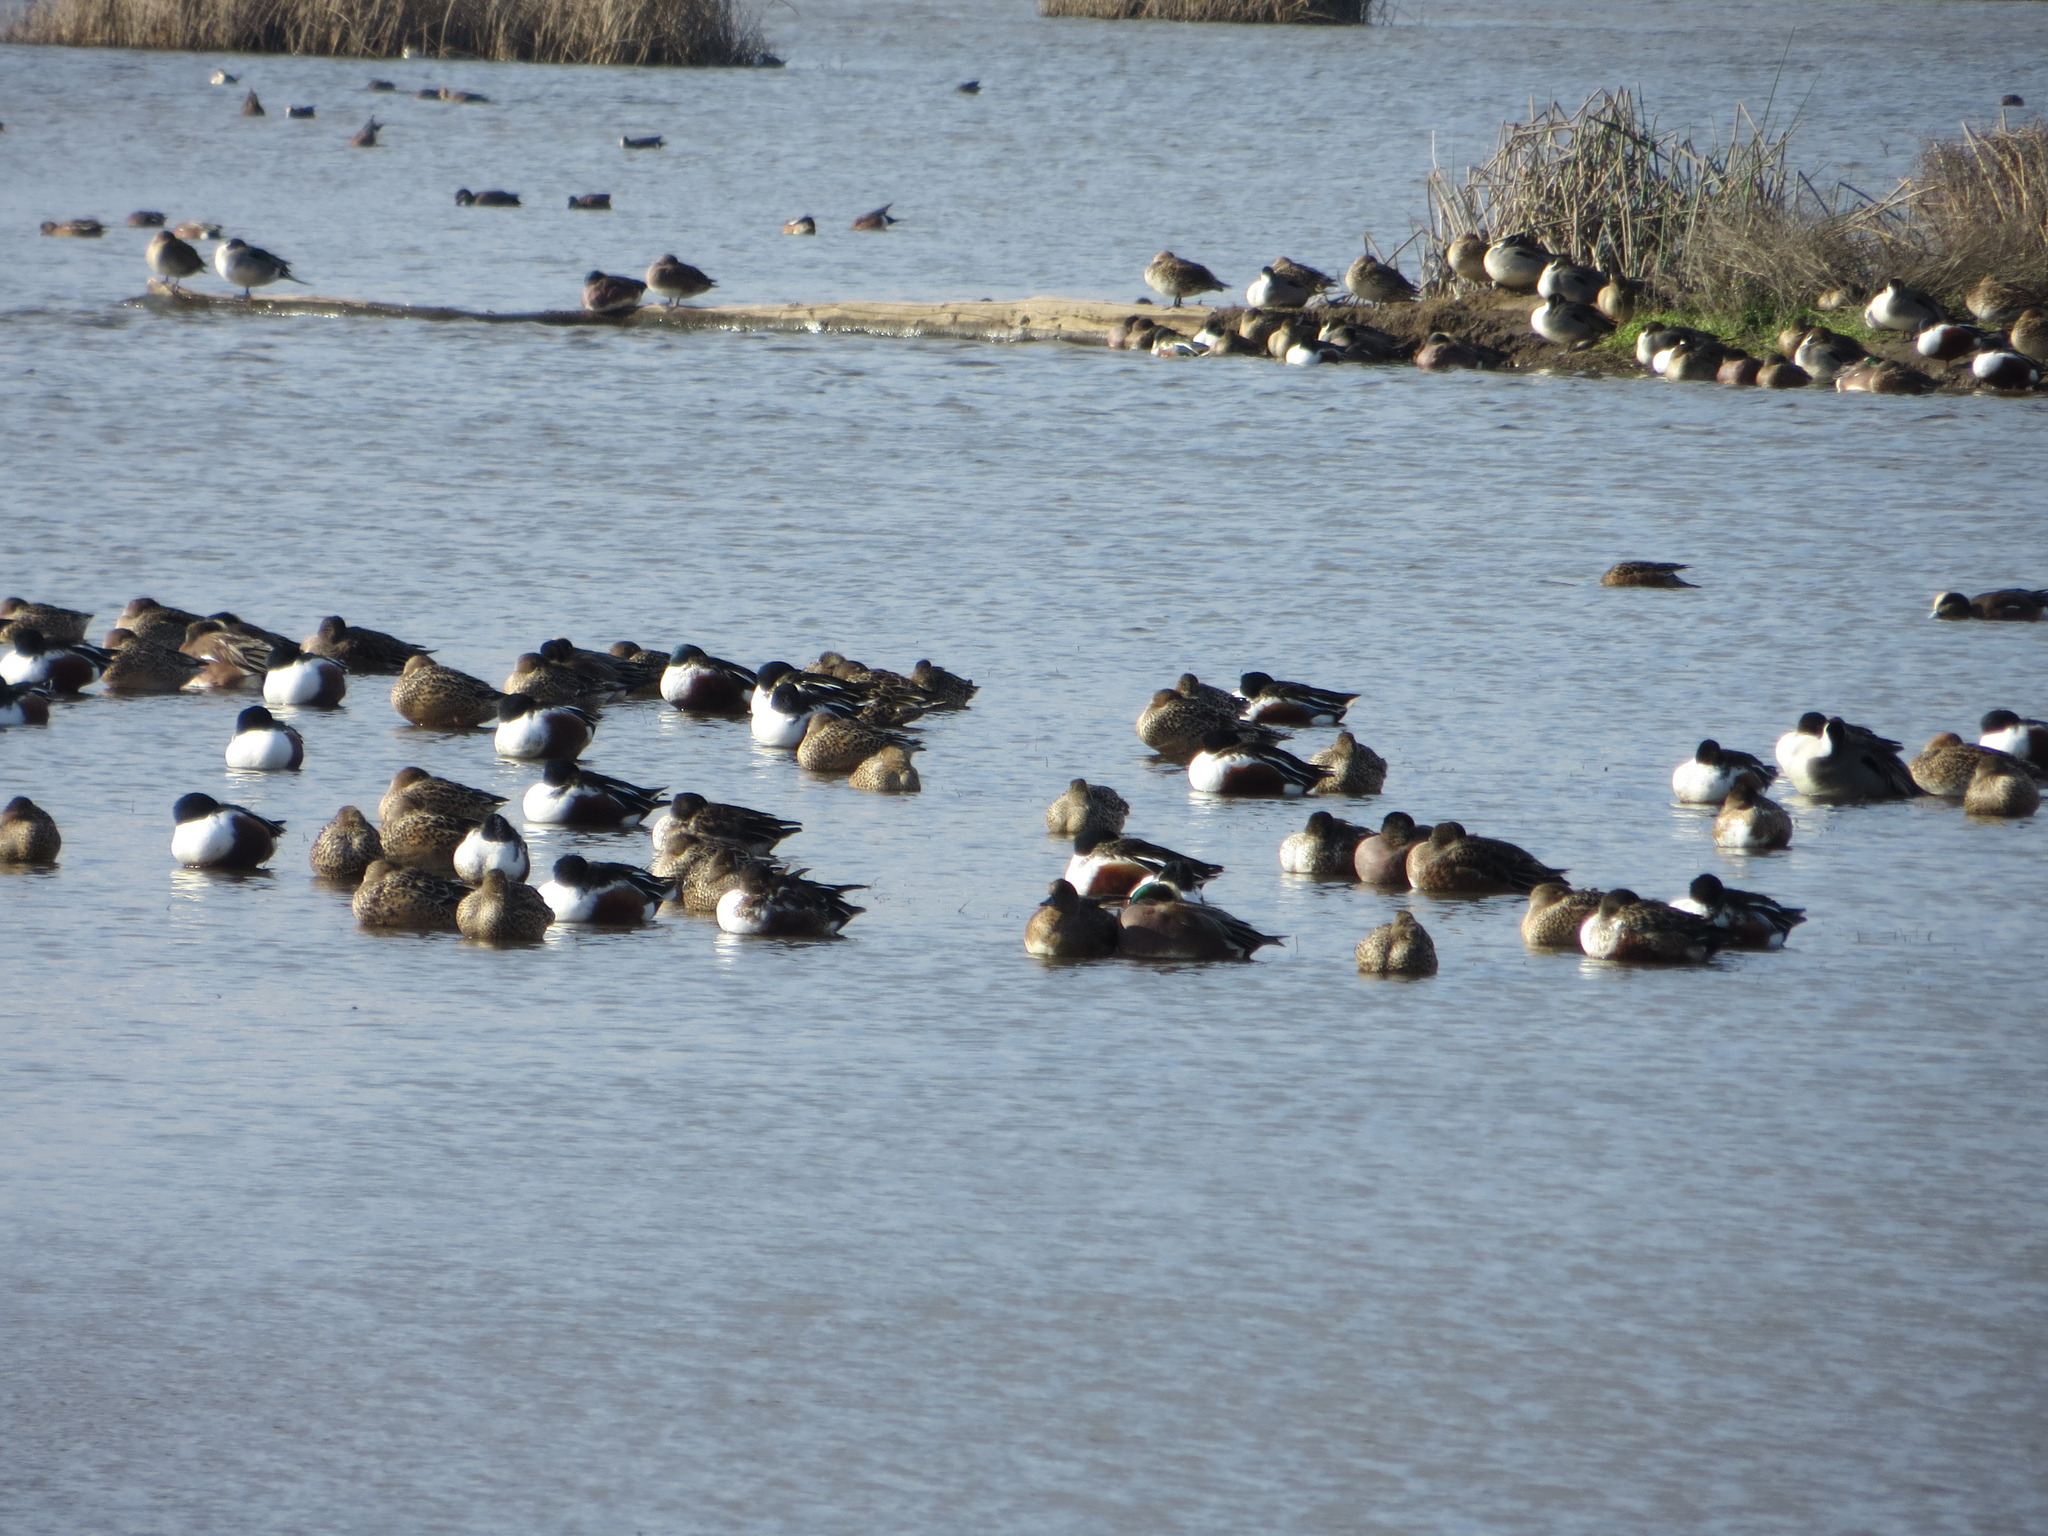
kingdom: Animalia
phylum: Chordata
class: Aves
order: Anseriformes
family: Anatidae
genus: Spatula
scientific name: Spatula clypeata
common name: Northern shoveler
